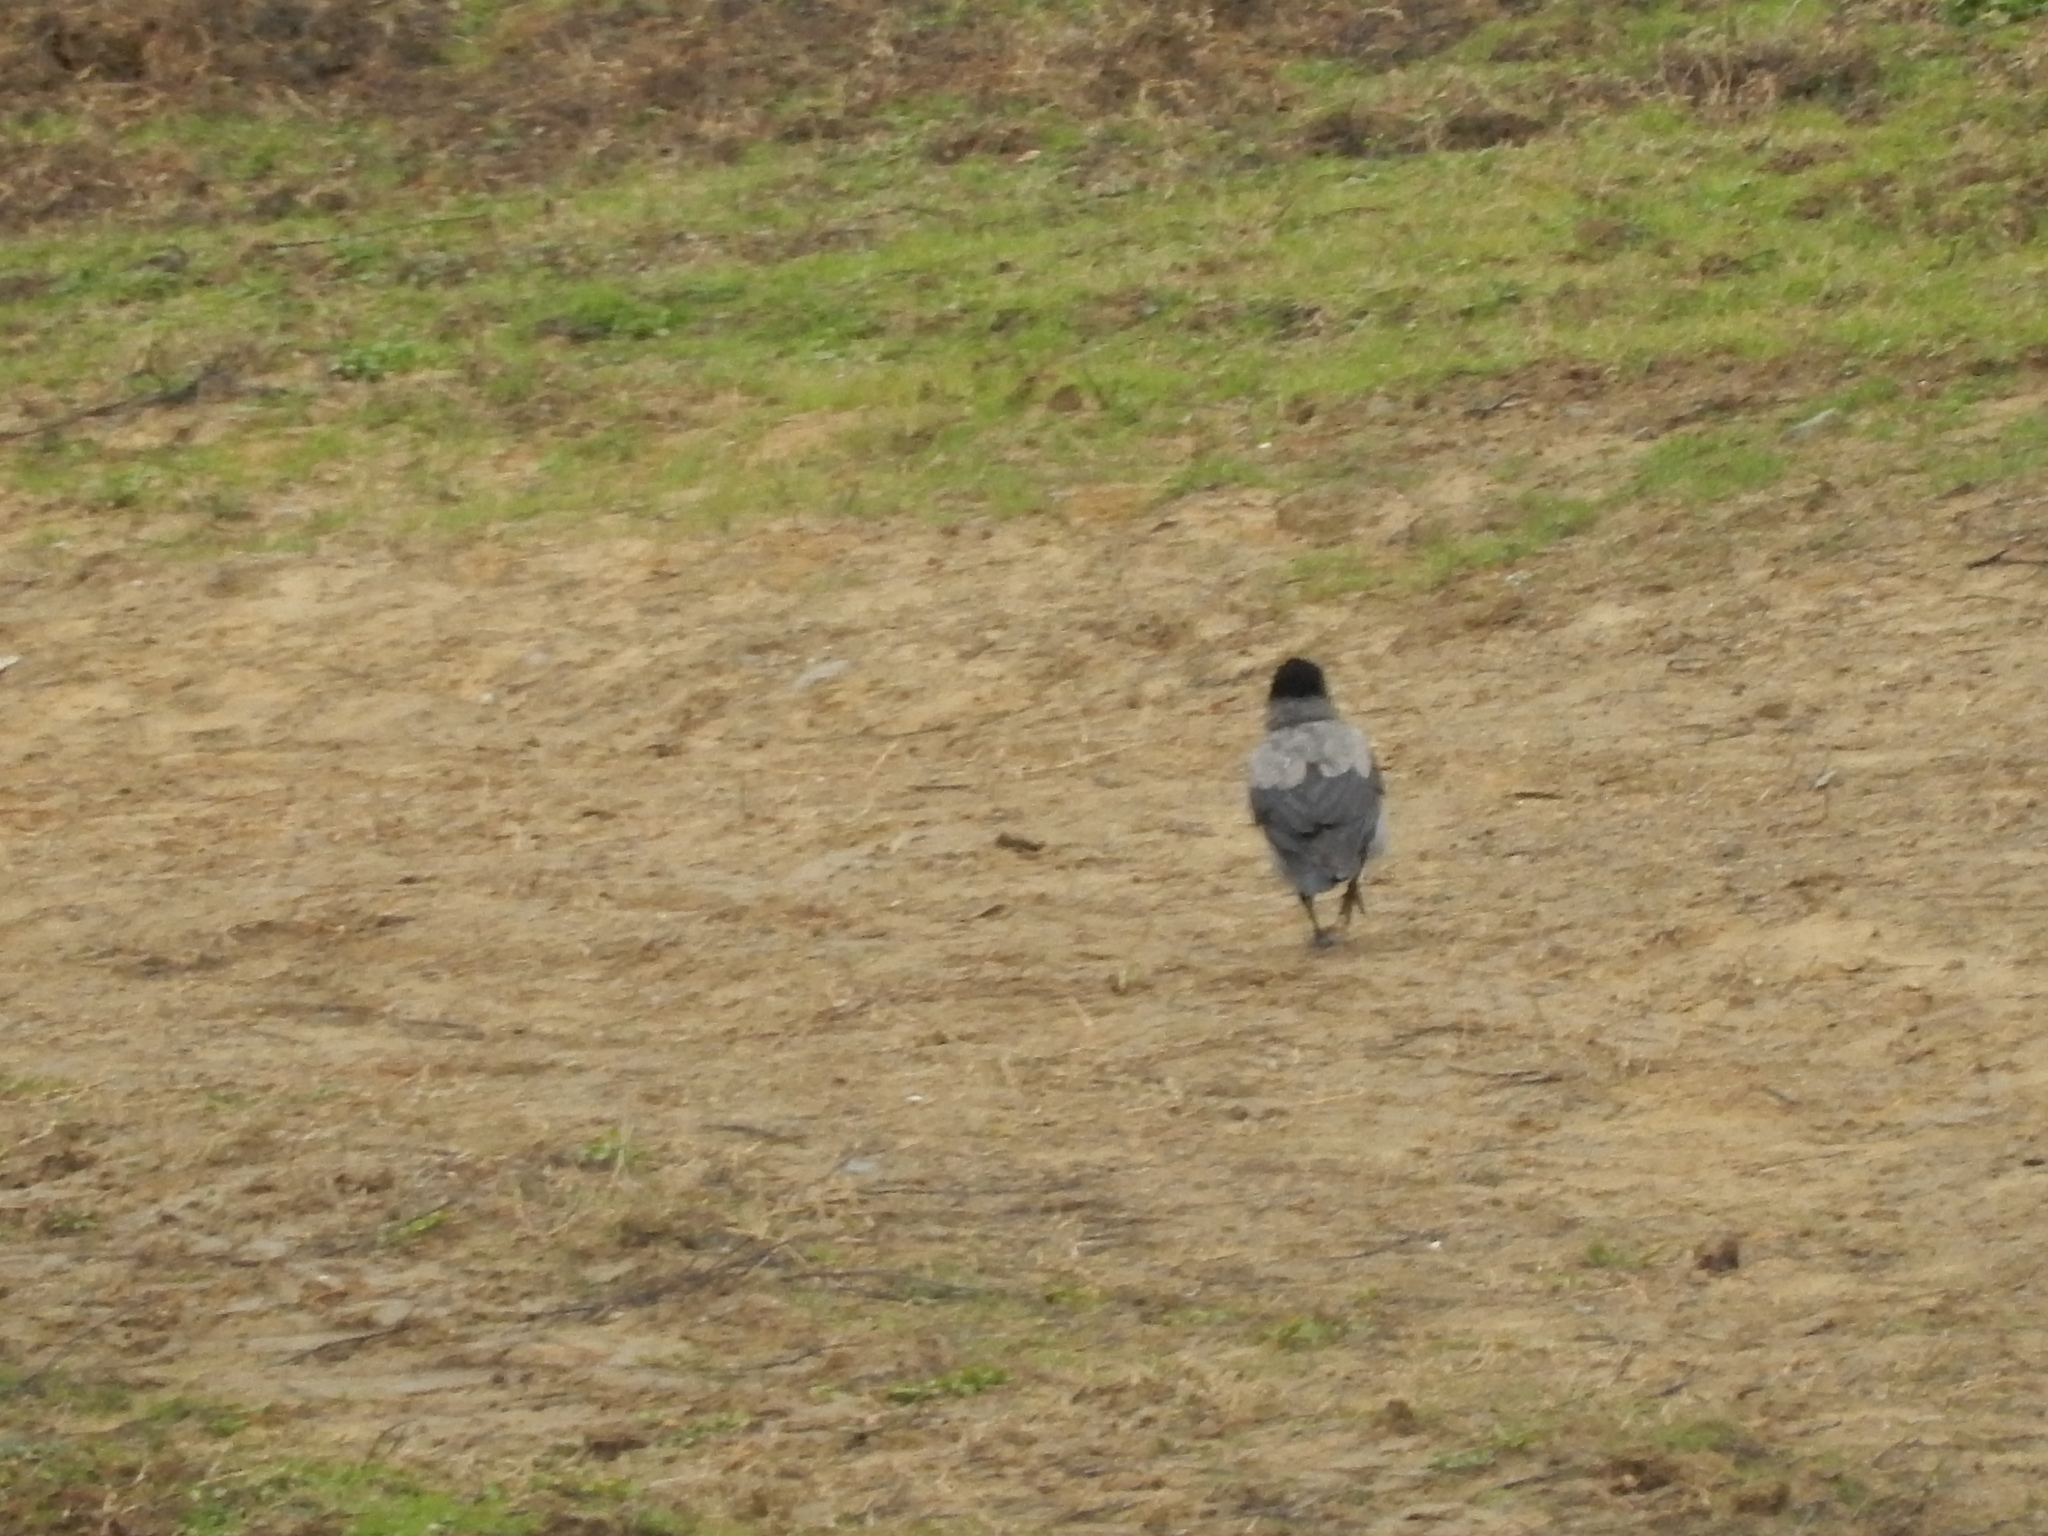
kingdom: Animalia
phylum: Chordata
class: Aves
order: Columbiformes
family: Columbidae
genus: Columba
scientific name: Columba livia
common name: Rock pigeon
